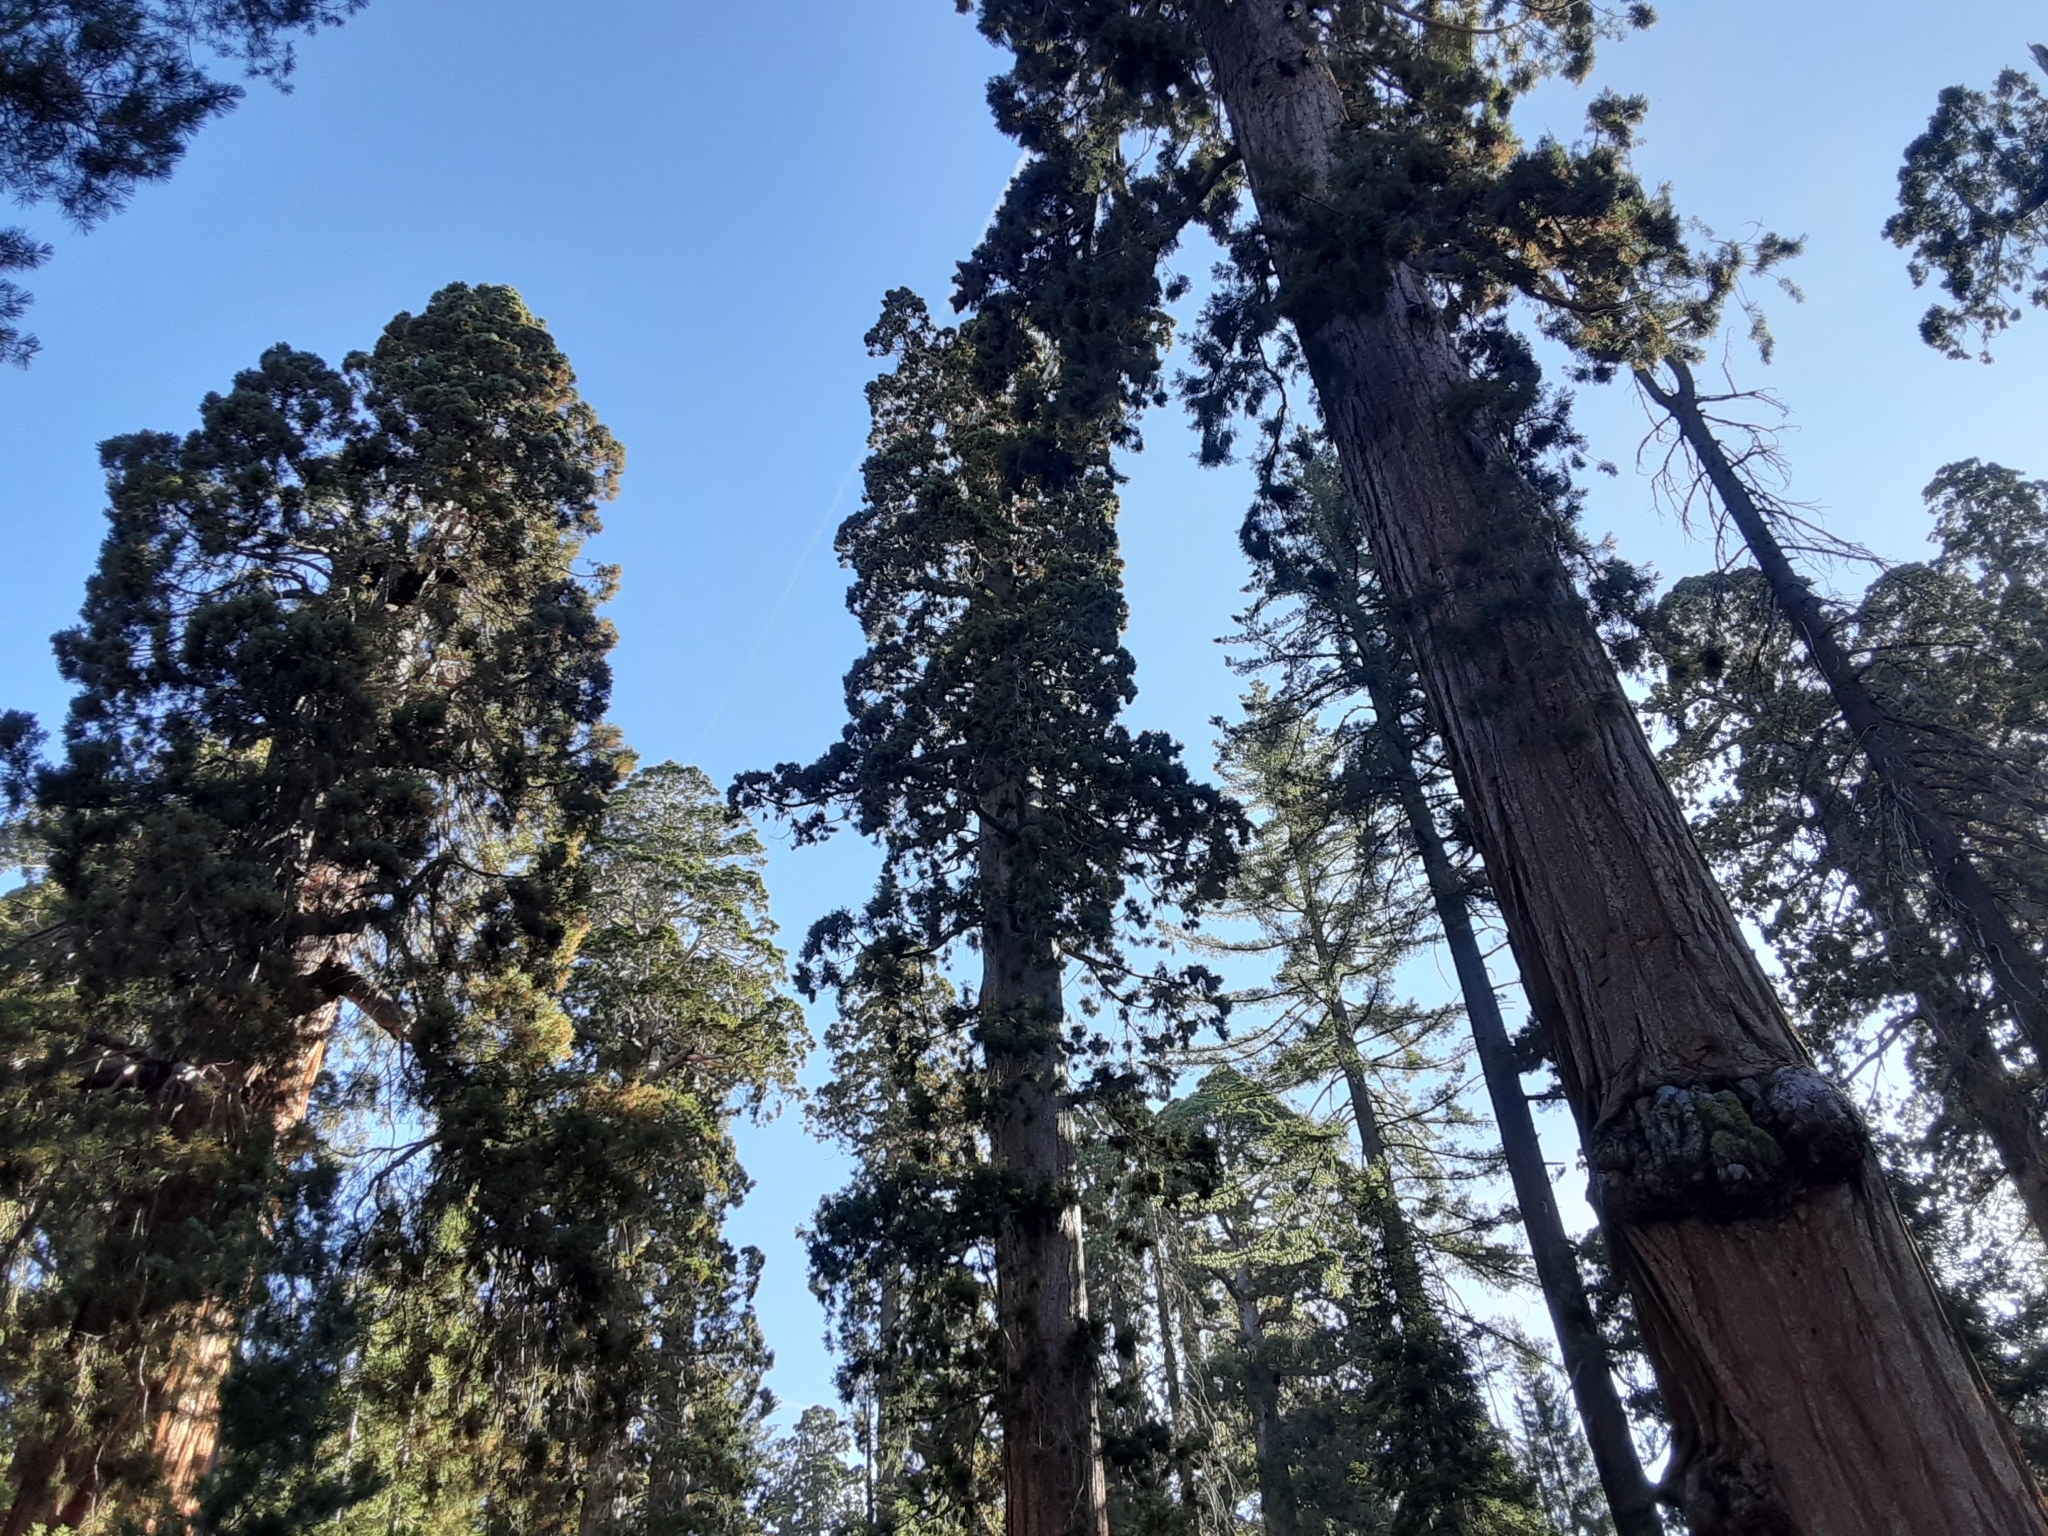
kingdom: Plantae
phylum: Tracheophyta
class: Pinopsida
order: Pinales
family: Cupressaceae
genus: Sequoiadendron
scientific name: Sequoiadendron giganteum
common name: Wellingtonia
